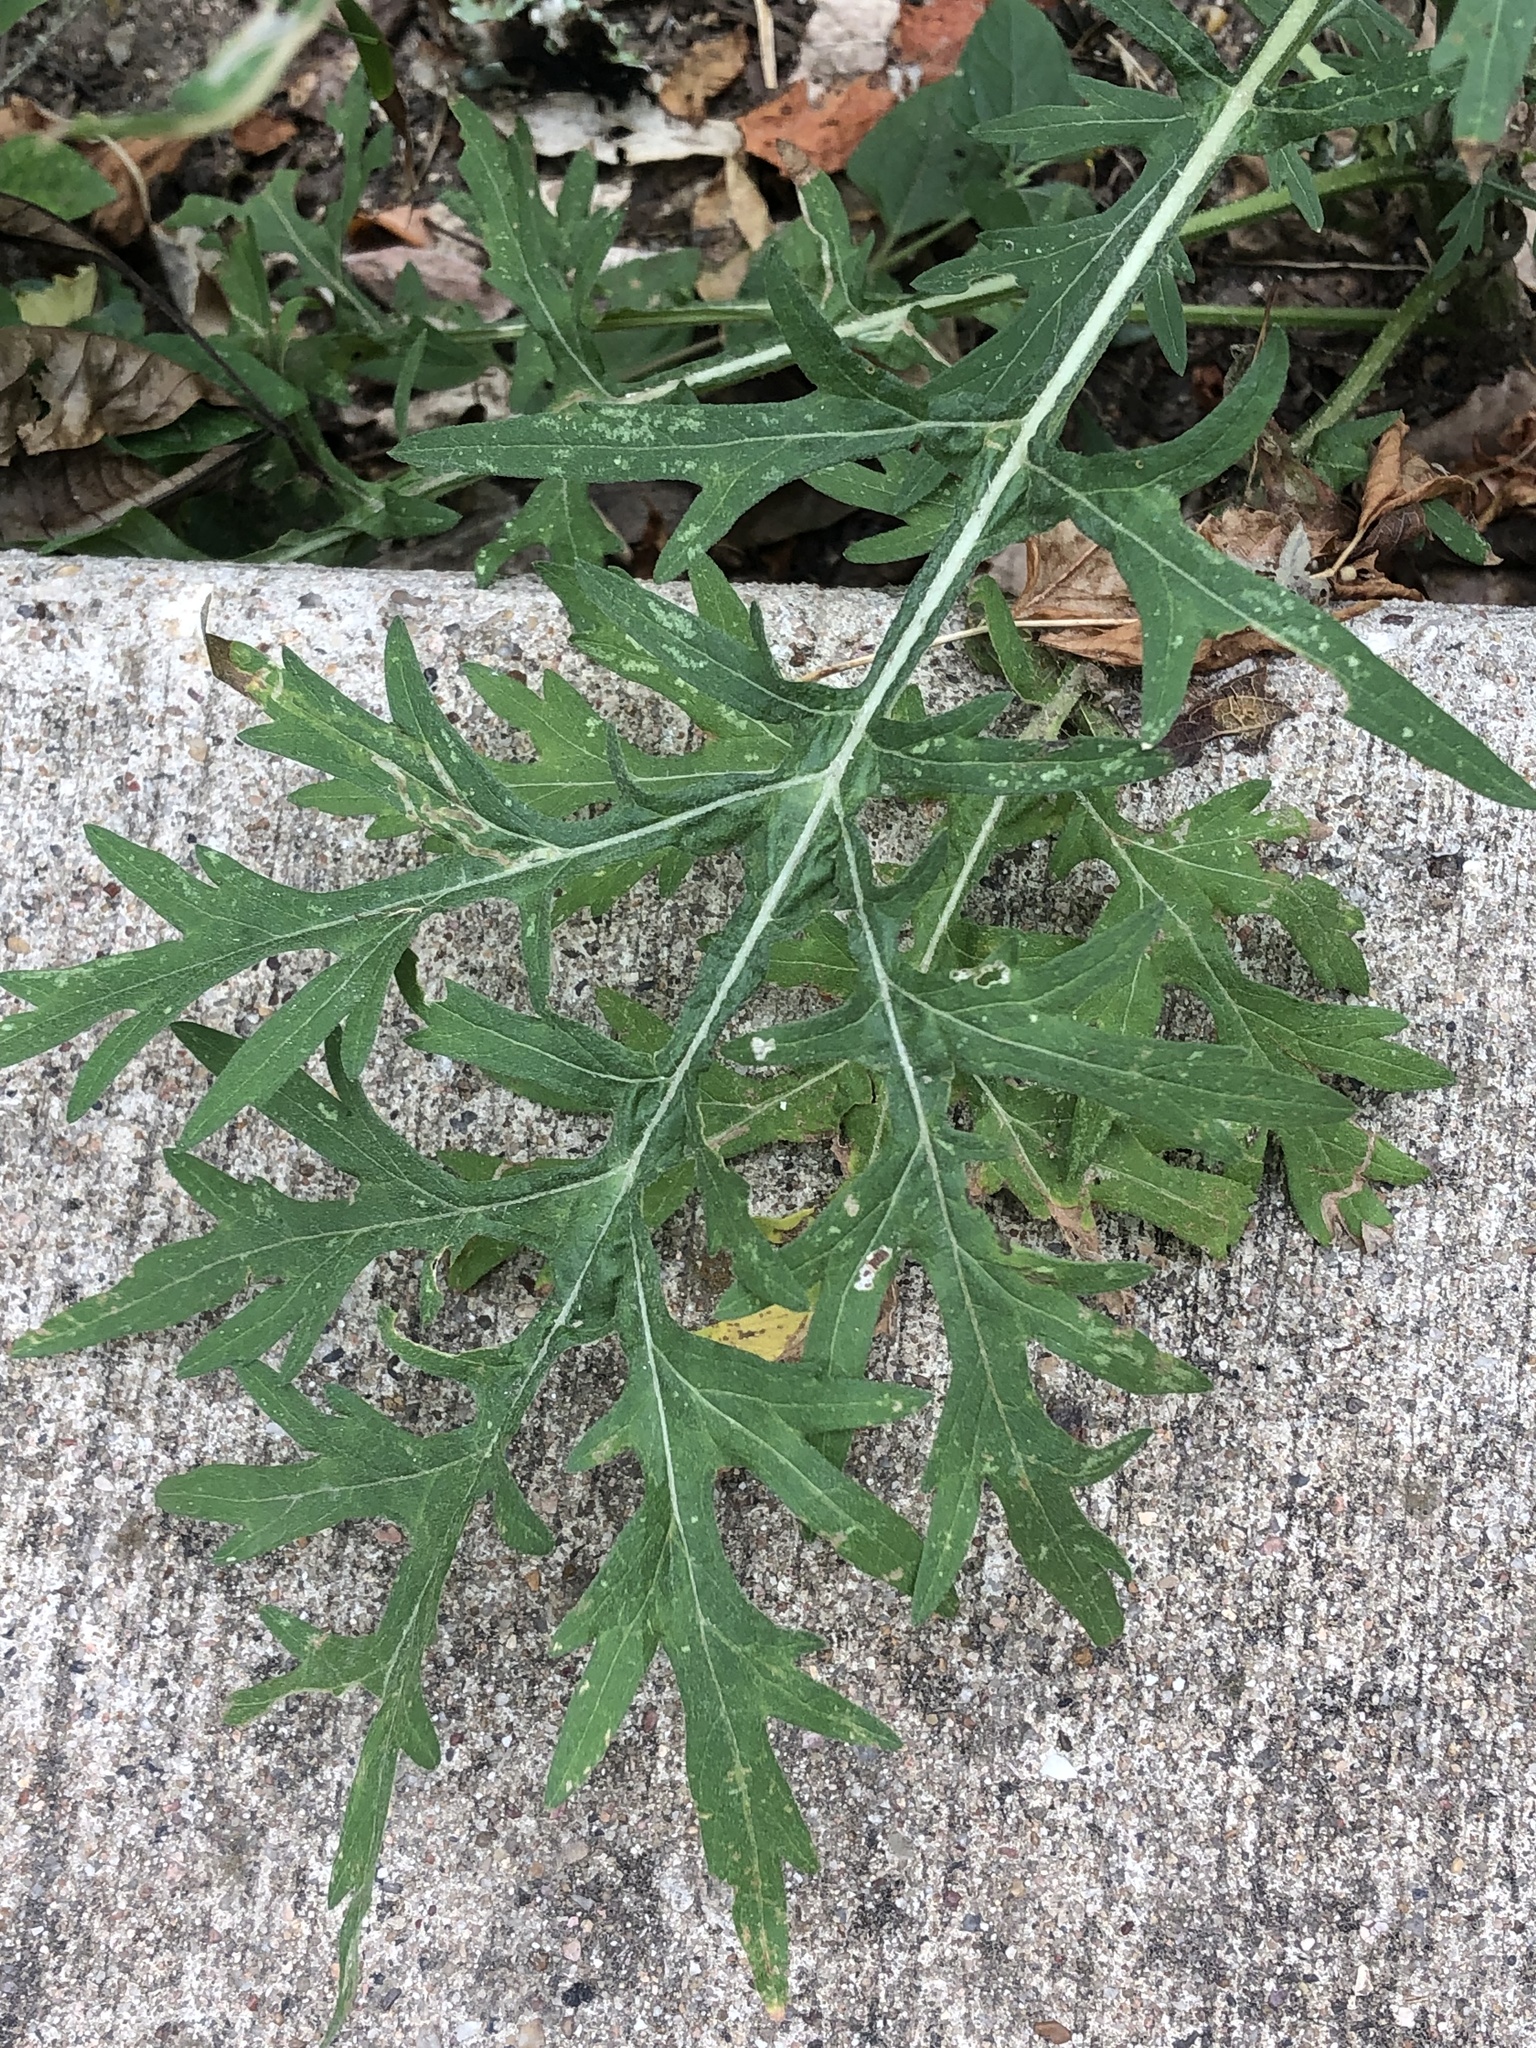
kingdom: Plantae
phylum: Tracheophyta
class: Magnoliopsida
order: Asterales
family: Asteraceae
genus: Parthenium
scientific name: Parthenium hysterophorus
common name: Santa maria feverfew
